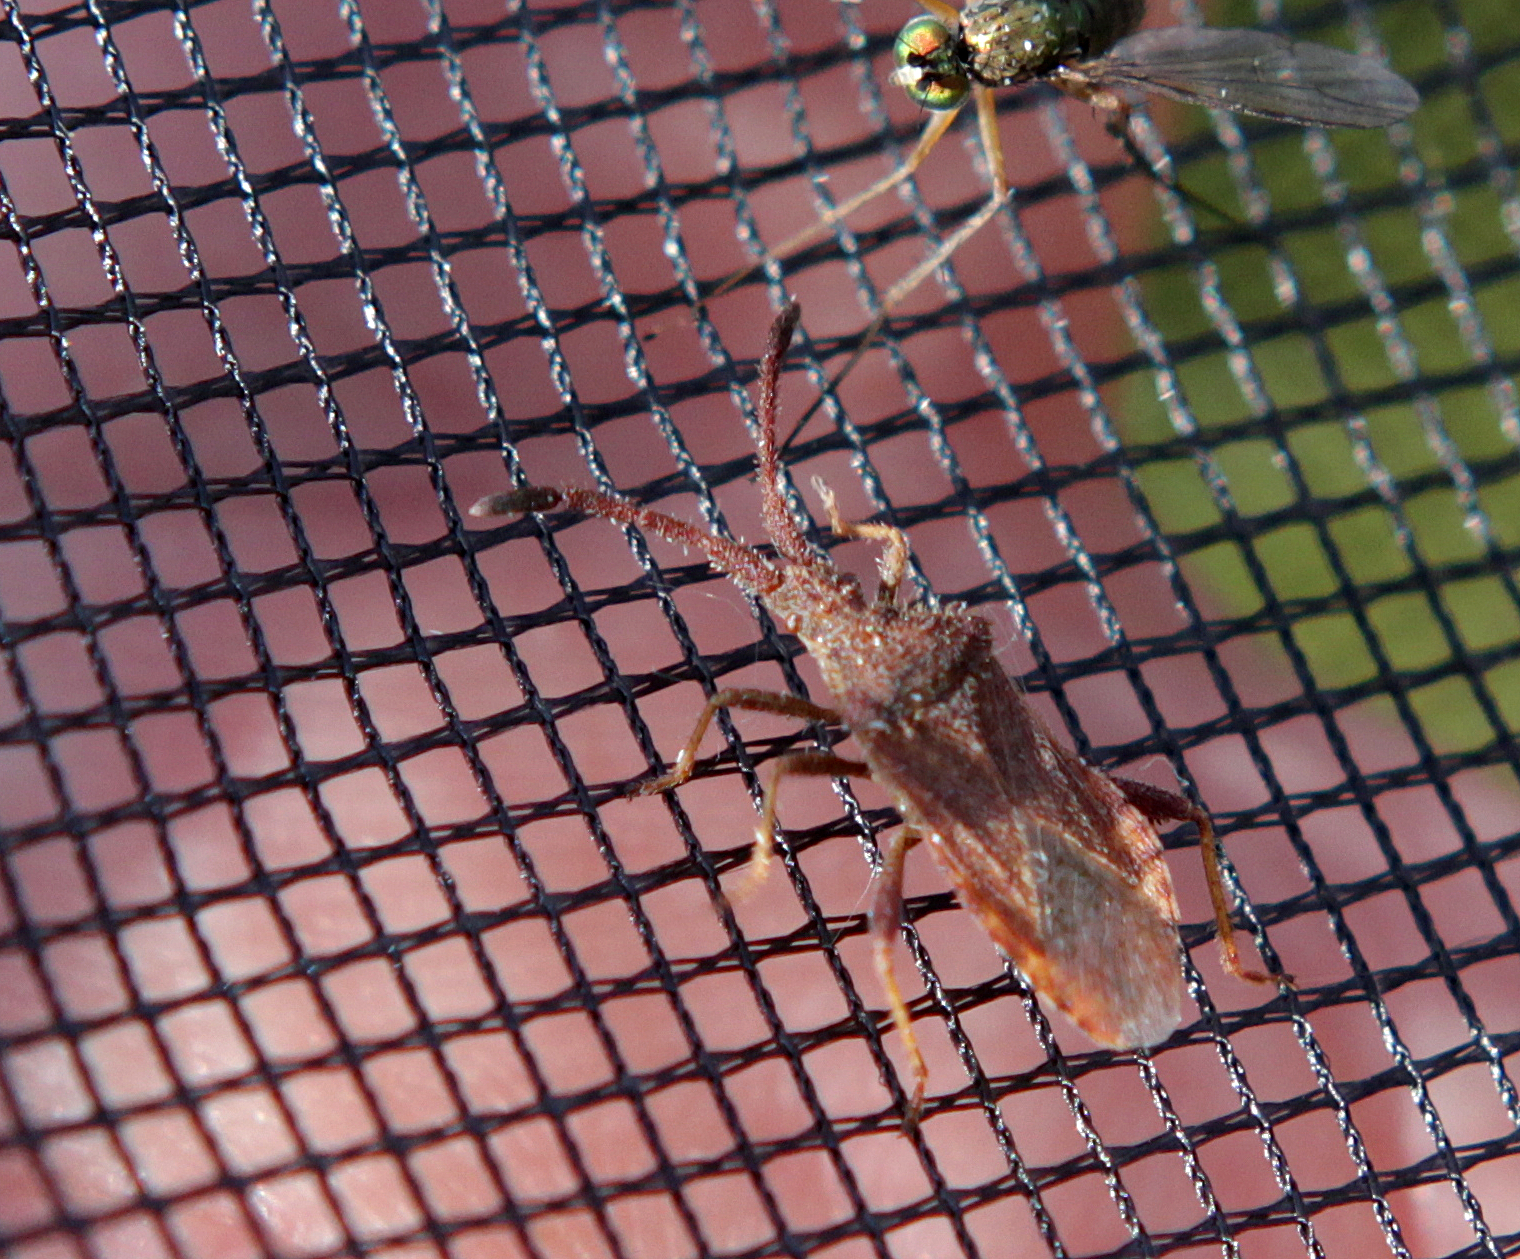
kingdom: Animalia
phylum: Arthropoda
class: Insecta
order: Hemiptera
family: Coreidae
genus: Coriomeris
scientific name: Coriomeris denticulatus
